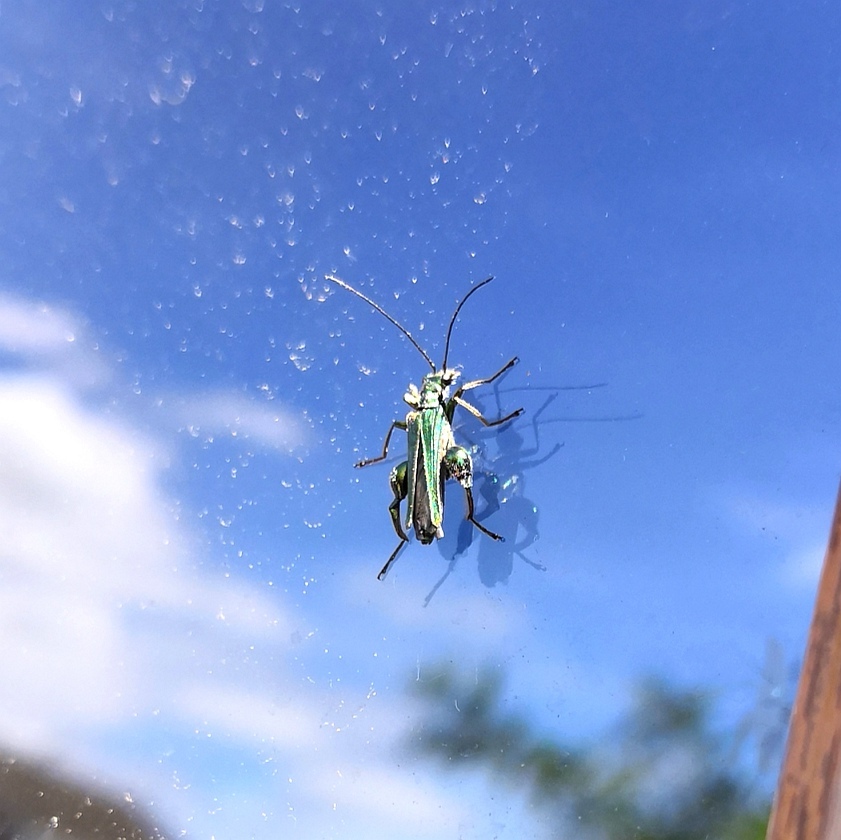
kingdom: Animalia
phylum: Arthropoda
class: Insecta
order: Coleoptera
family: Oedemeridae
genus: Oedemera
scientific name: Oedemera nobilis
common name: Swollen-thighed beetle
